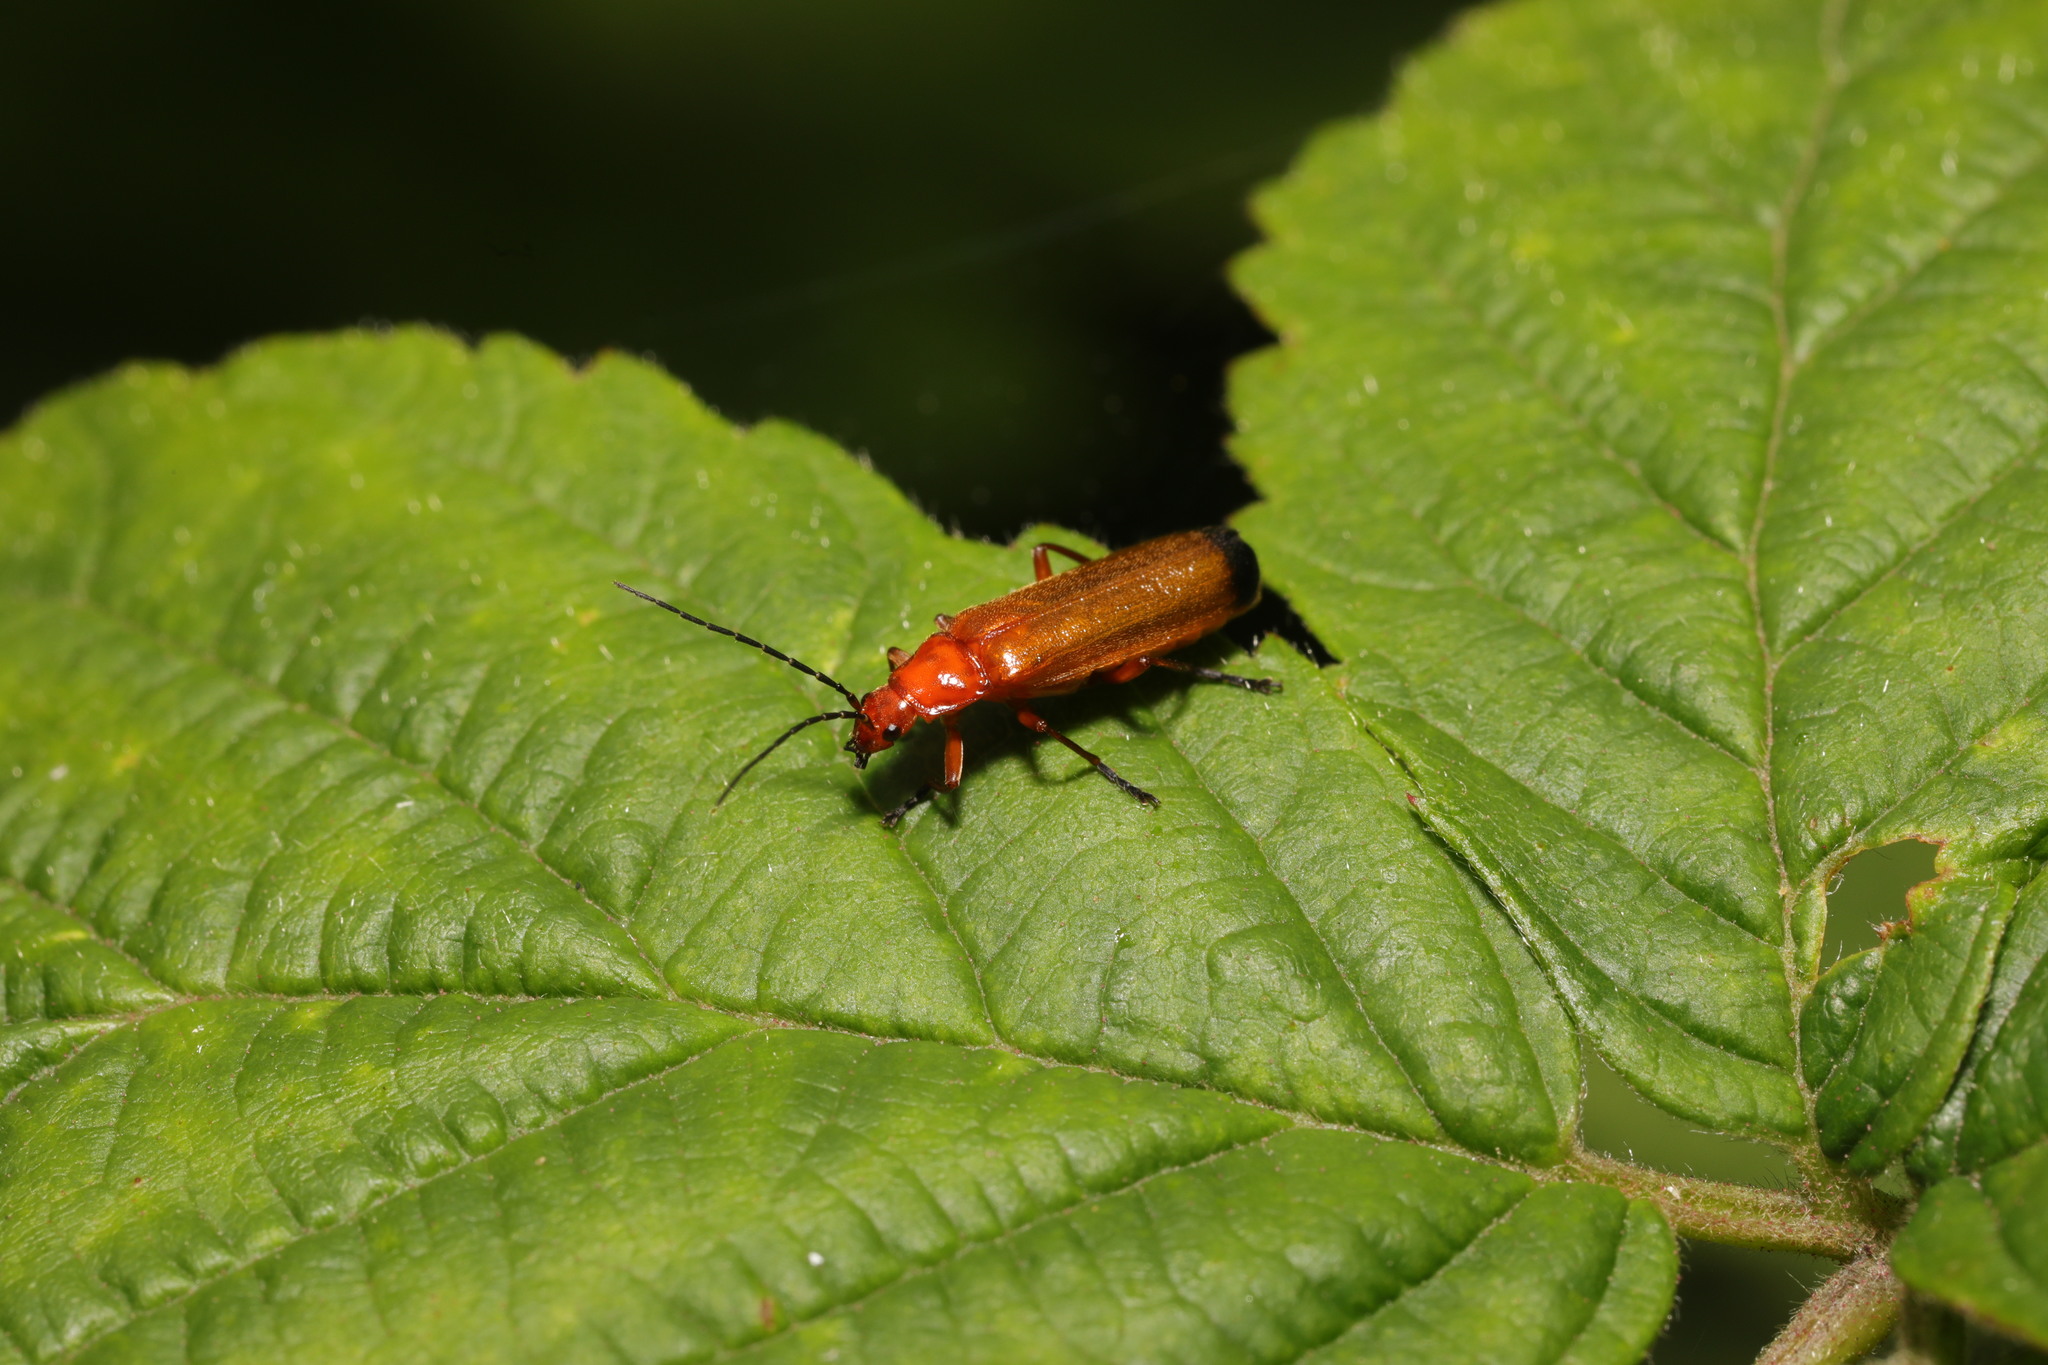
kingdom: Animalia
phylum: Arthropoda
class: Insecta
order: Coleoptera
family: Cantharidae
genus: Rhagonycha
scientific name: Rhagonycha fulva
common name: Common red soldier beetle
